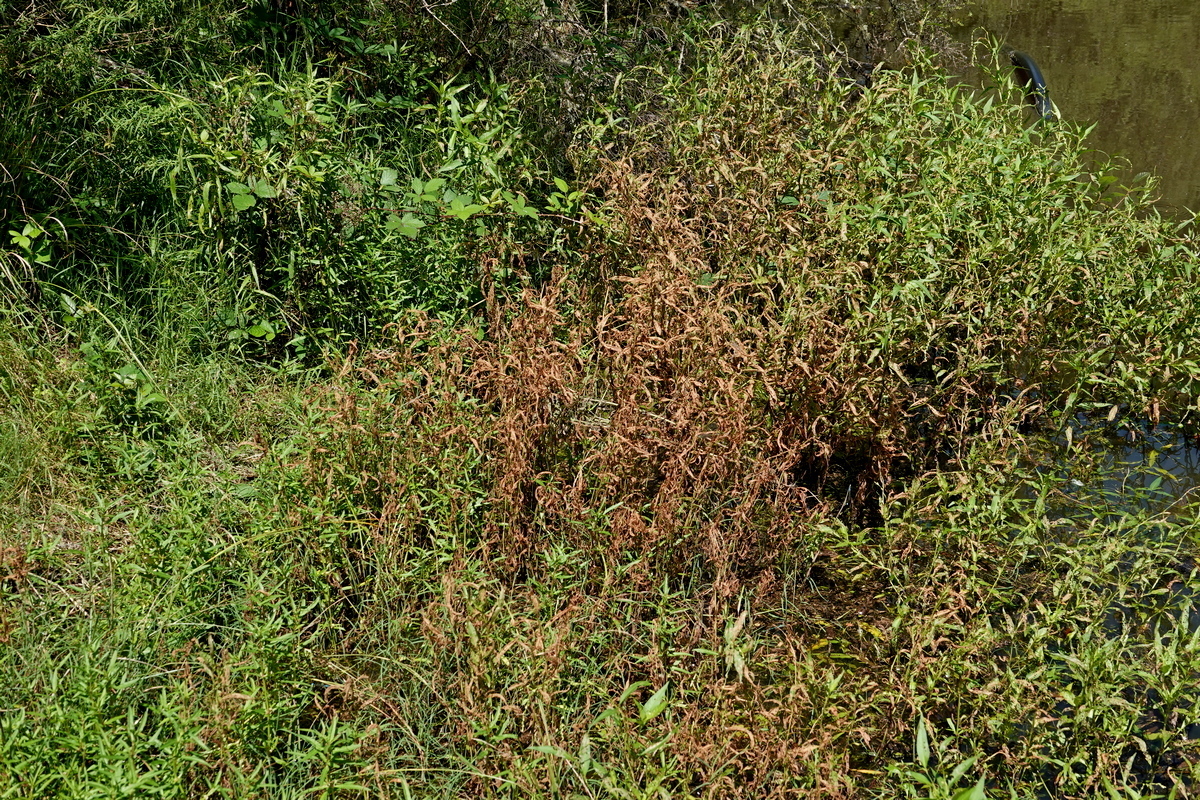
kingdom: Animalia
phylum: Arthropoda
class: Insecta
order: Coleoptera
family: Chrysomelidae
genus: Galerucella
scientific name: Galerucella
